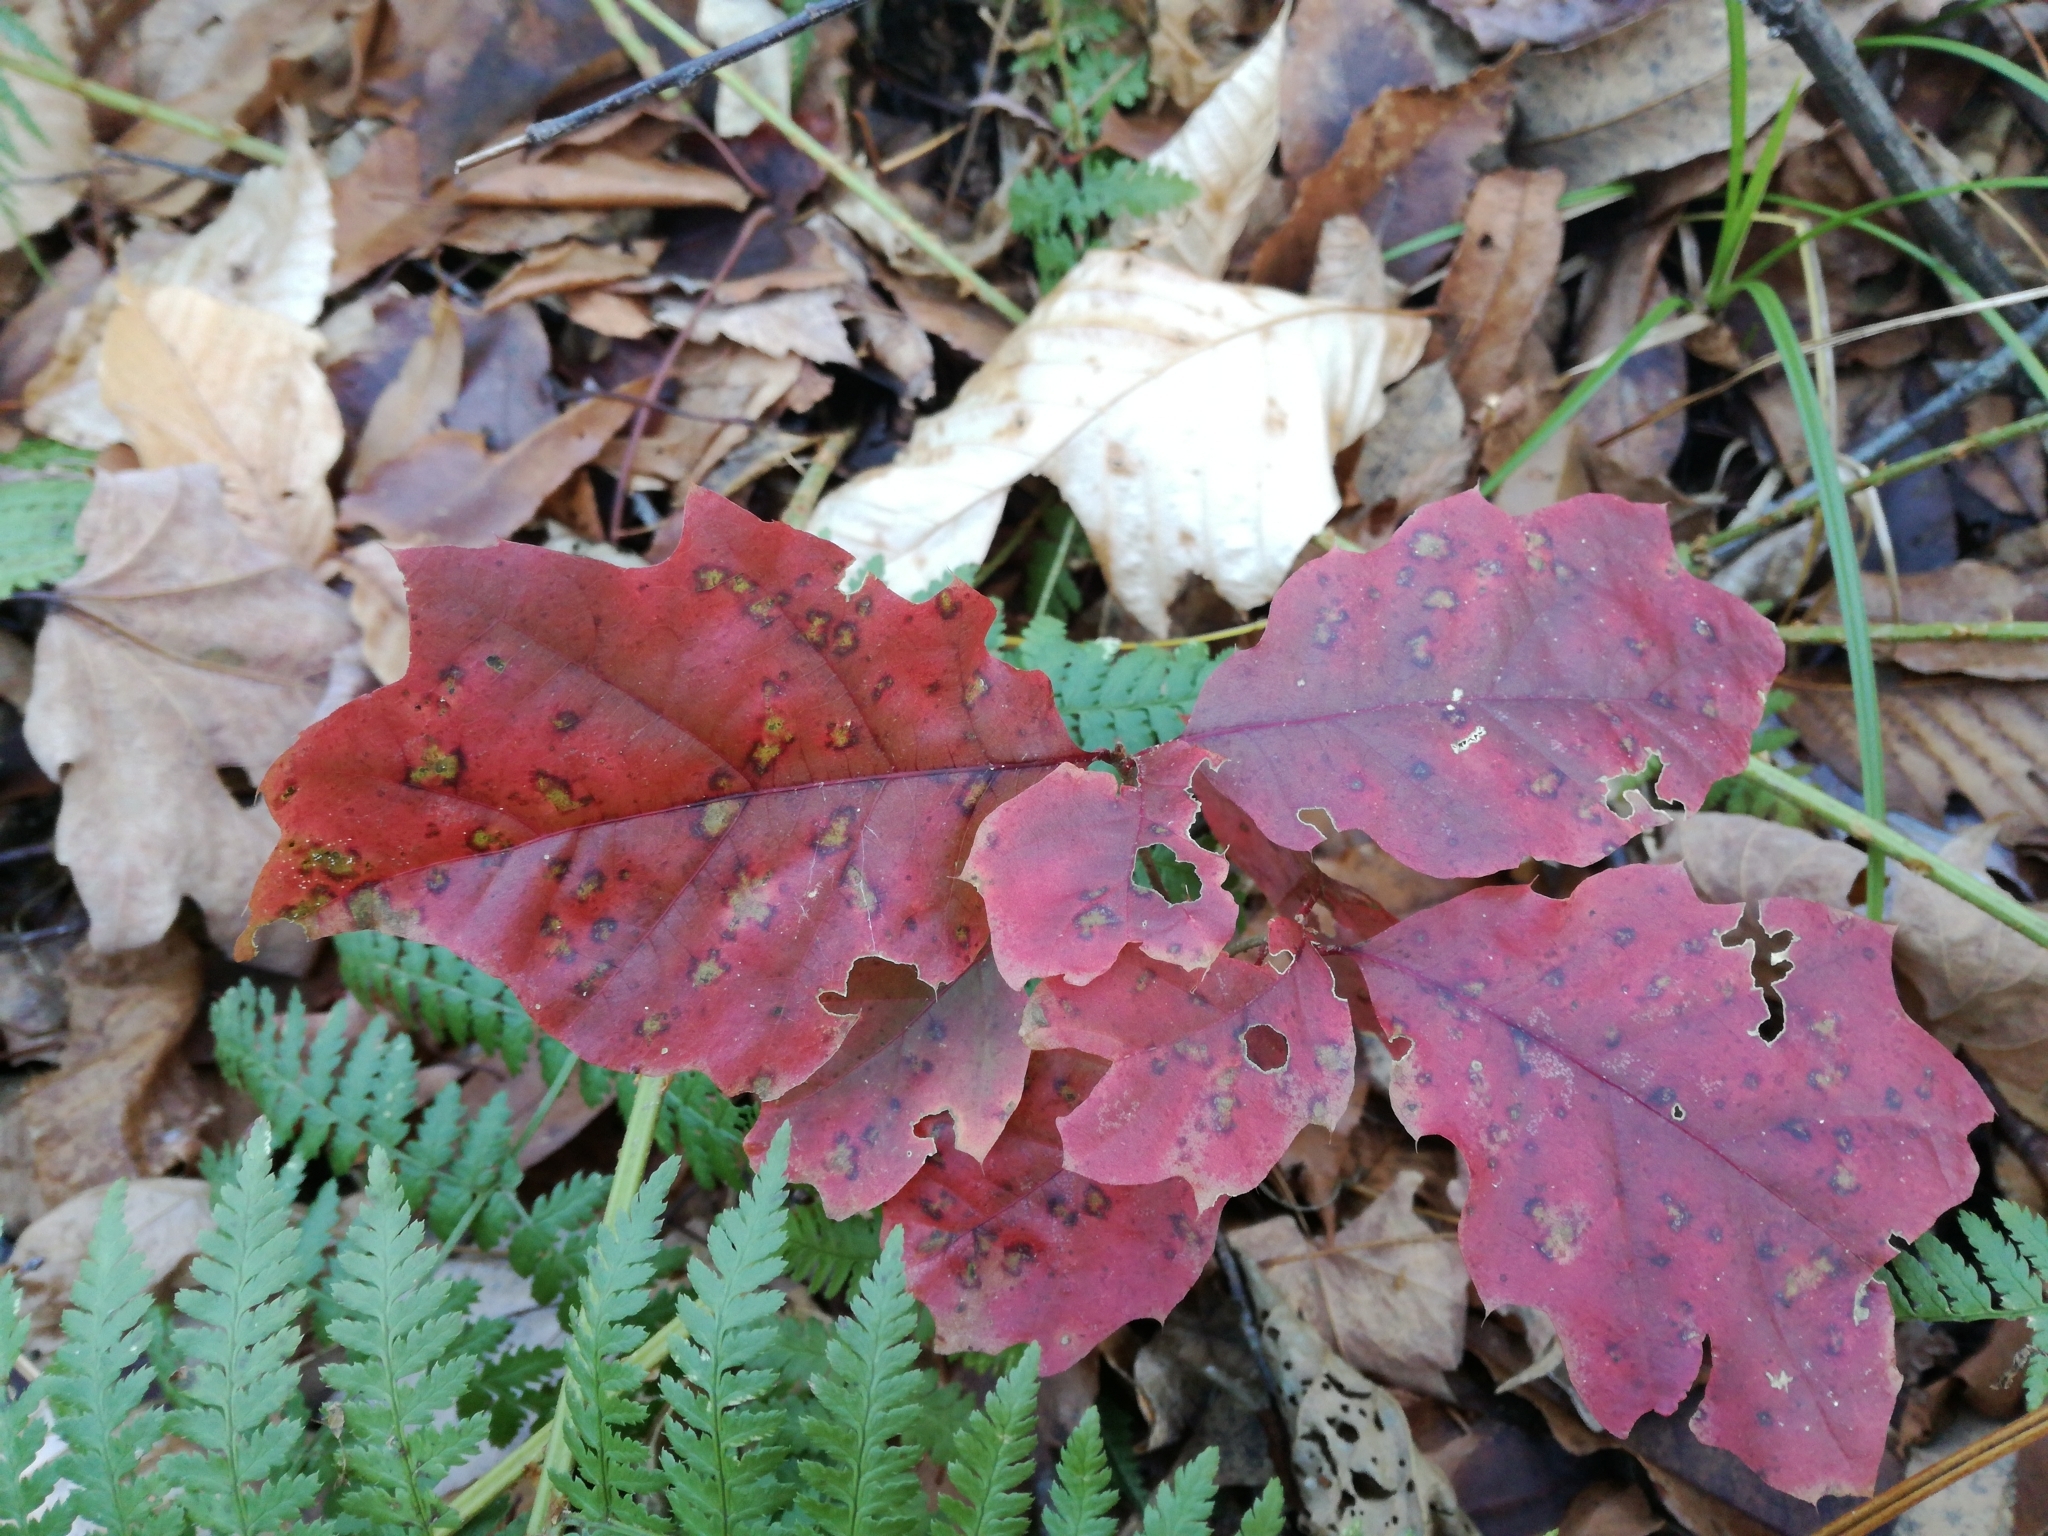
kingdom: Plantae
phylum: Tracheophyta
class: Magnoliopsida
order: Fagales
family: Fagaceae
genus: Quercus
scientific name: Quercus rubra
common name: Red oak
